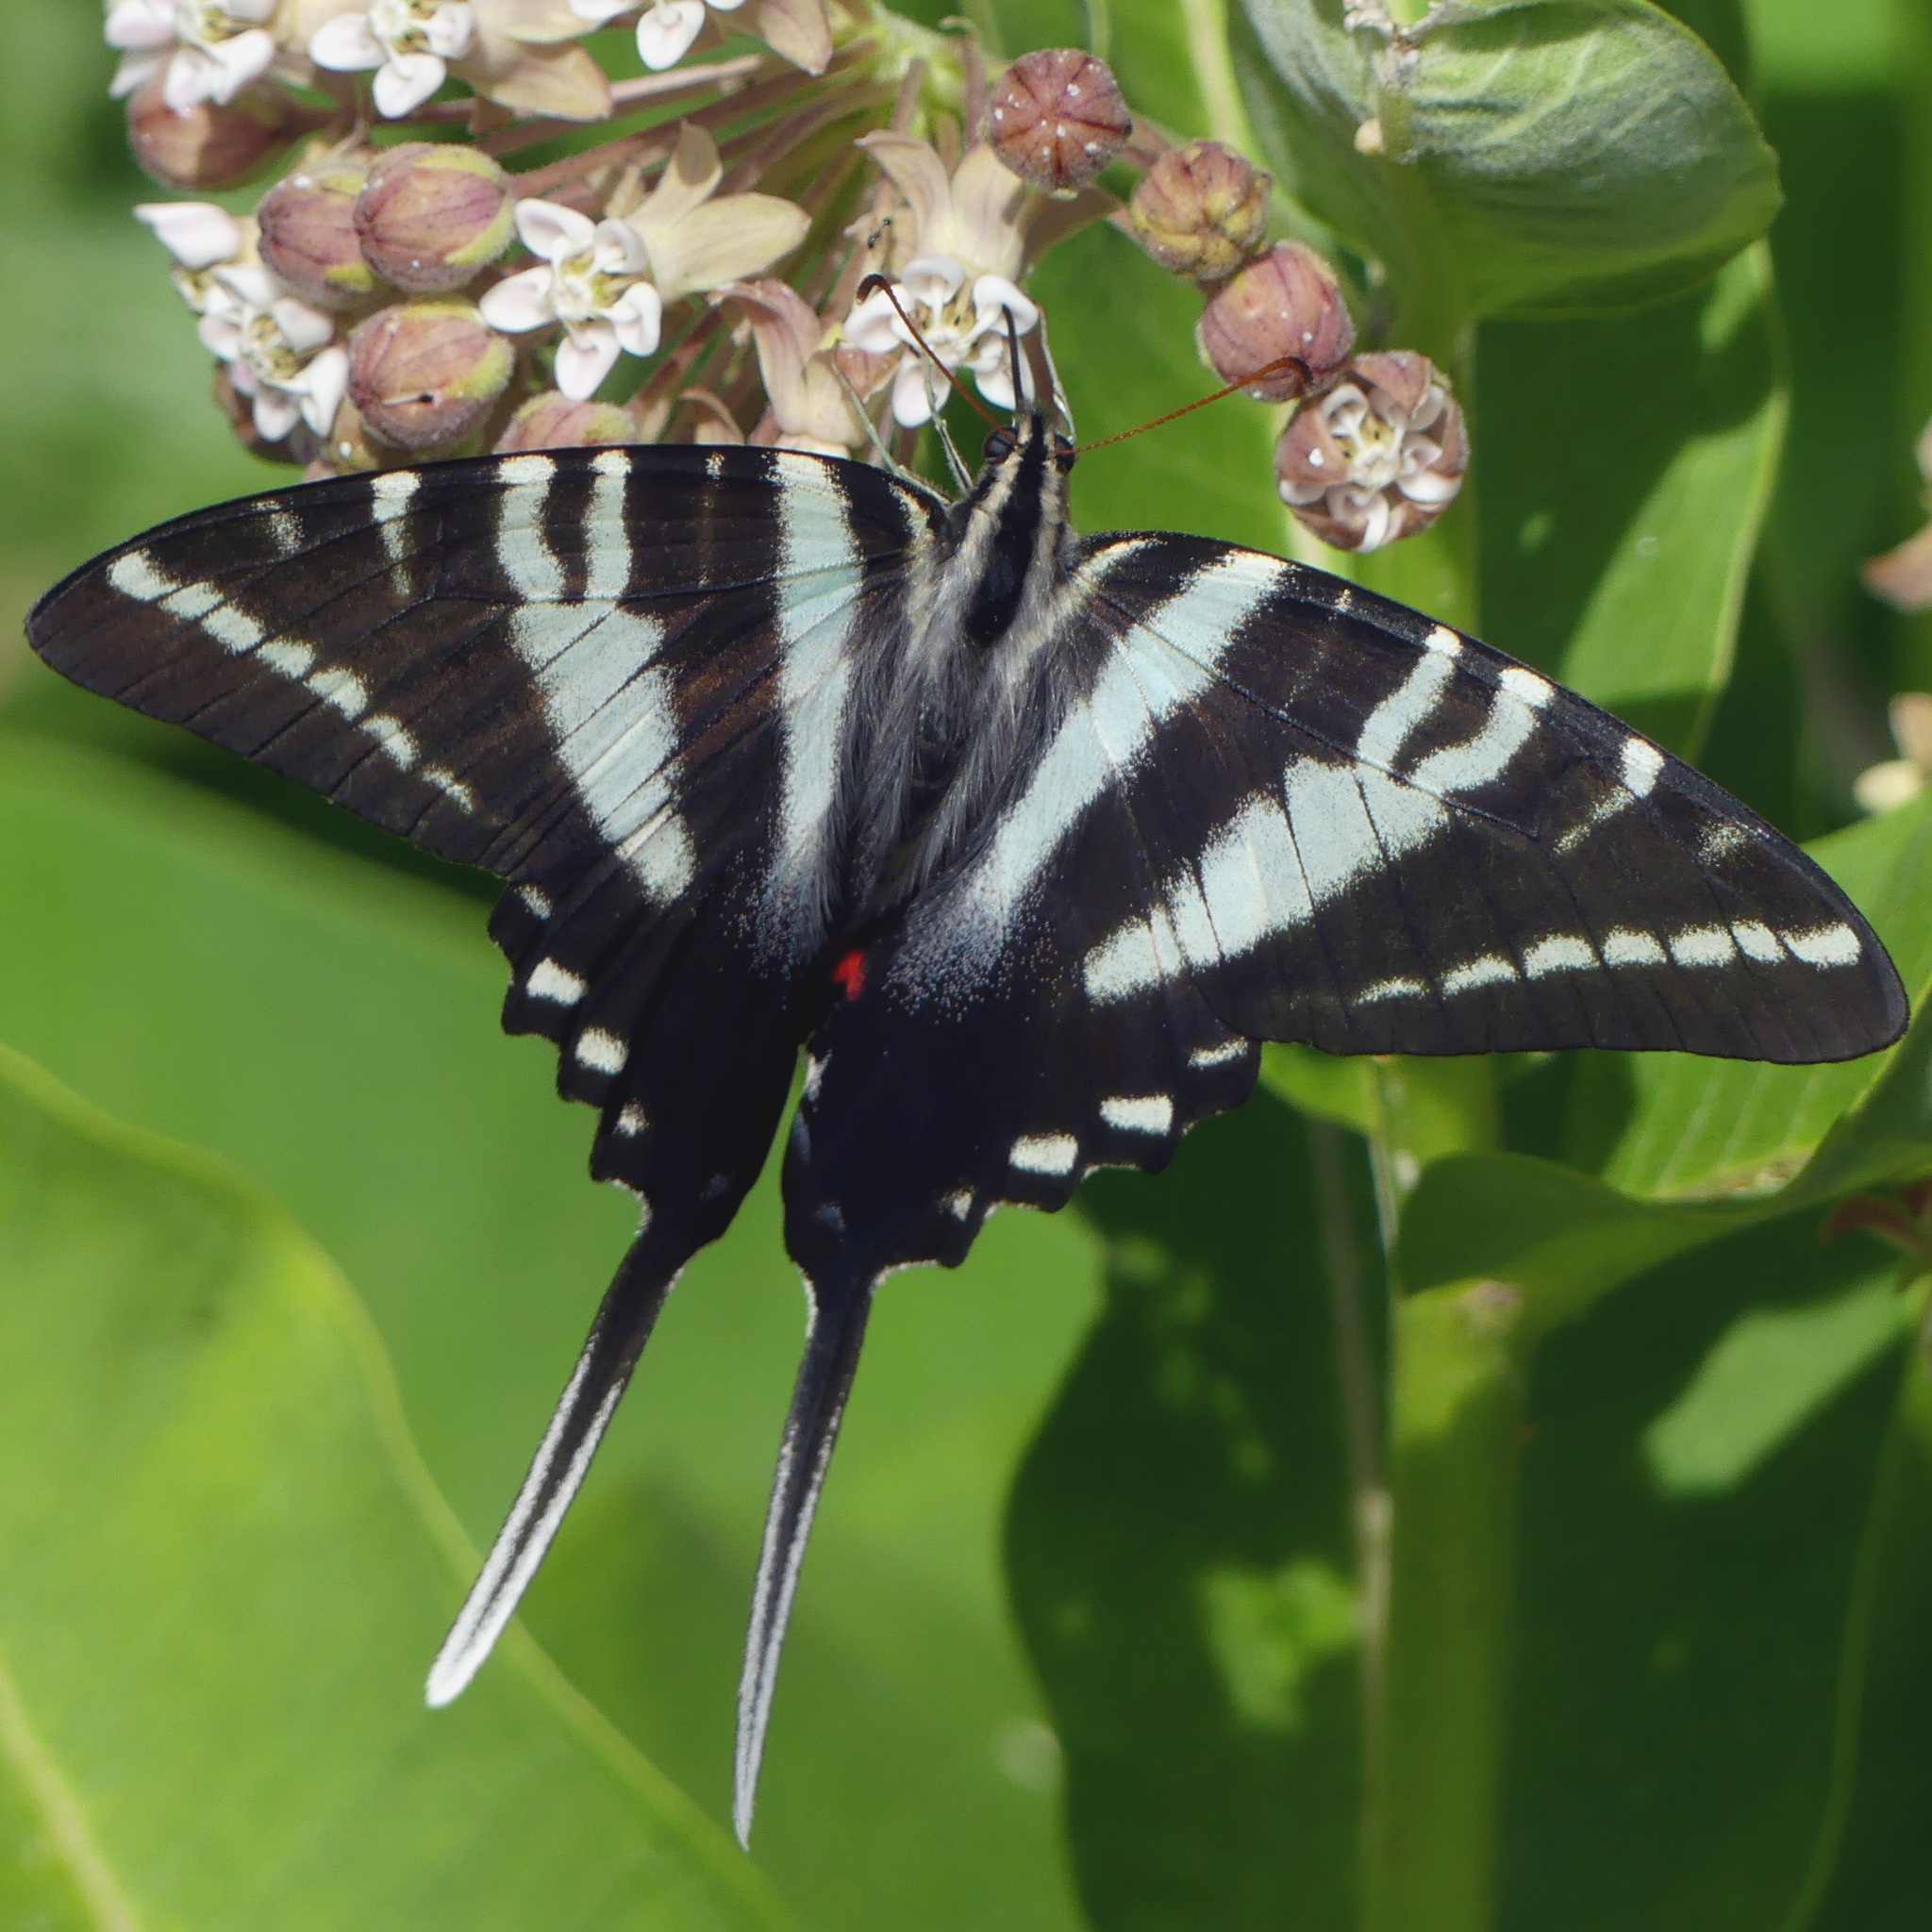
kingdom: Animalia
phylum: Arthropoda
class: Insecta
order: Lepidoptera
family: Papilionidae
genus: Protographium
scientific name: Protographium marcellus
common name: Zebra swallowtail
